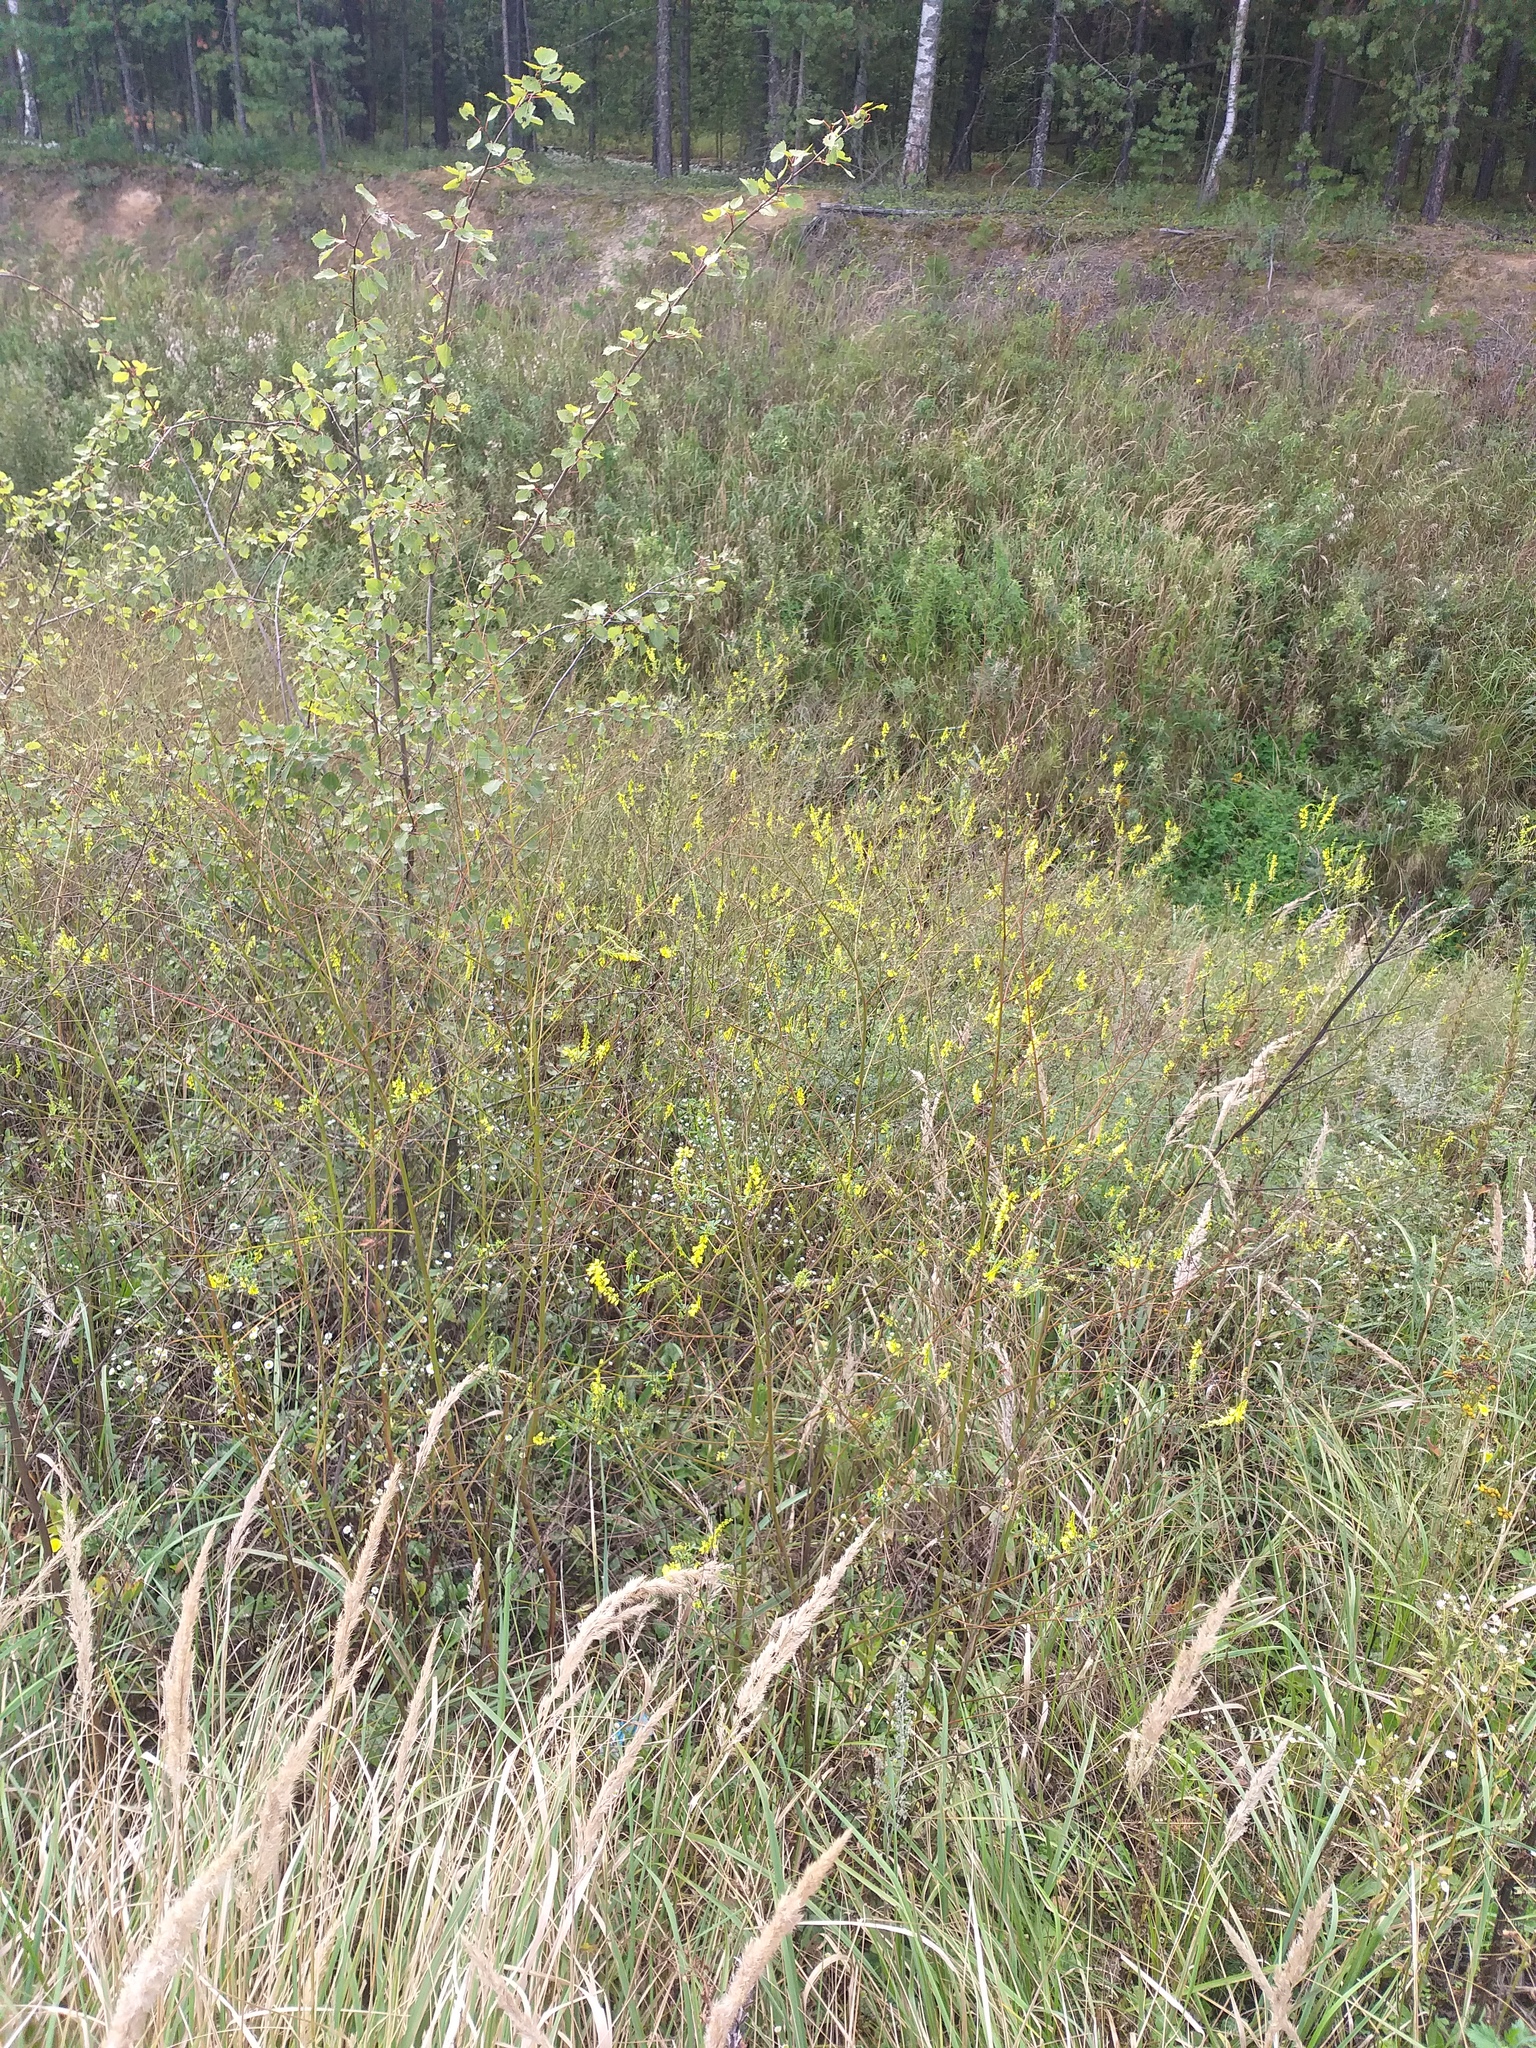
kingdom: Plantae
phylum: Tracheophyta
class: Magnoliopsida
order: Fabales
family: Fabaceae
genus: Melilotus
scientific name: Melilotus officinalis
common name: Sweetclover
